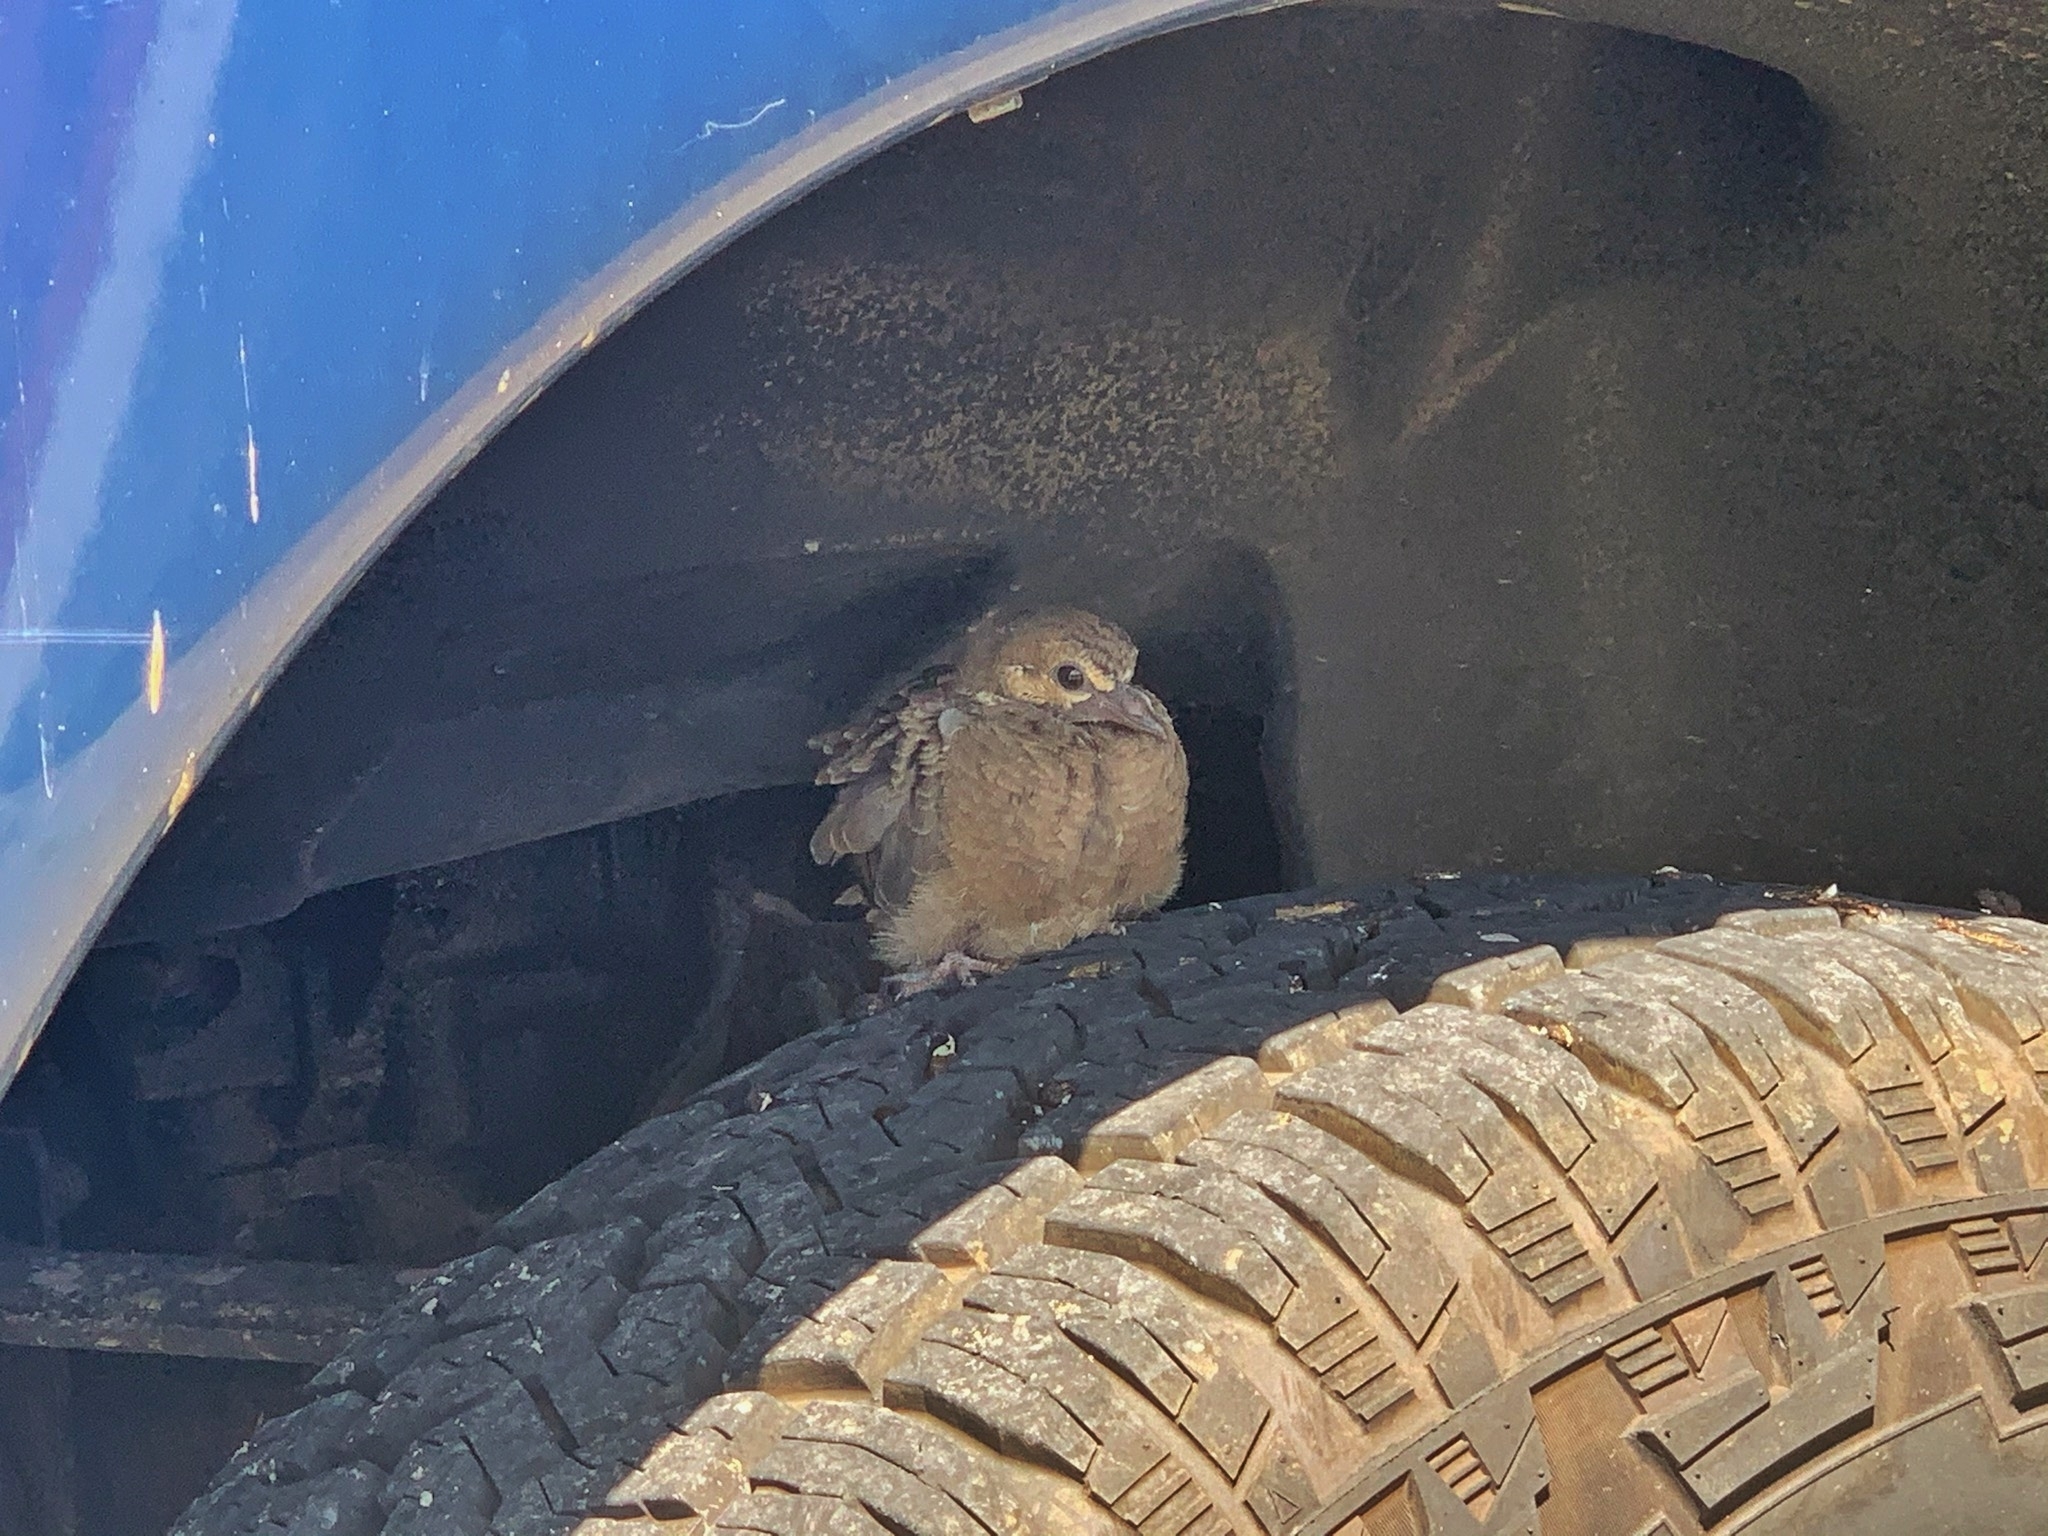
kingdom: Animalia
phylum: Chordata
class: Aves
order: Columbiformes
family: Columbidae
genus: Zenaida
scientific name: Zenaida macroura
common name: Mourning dove
